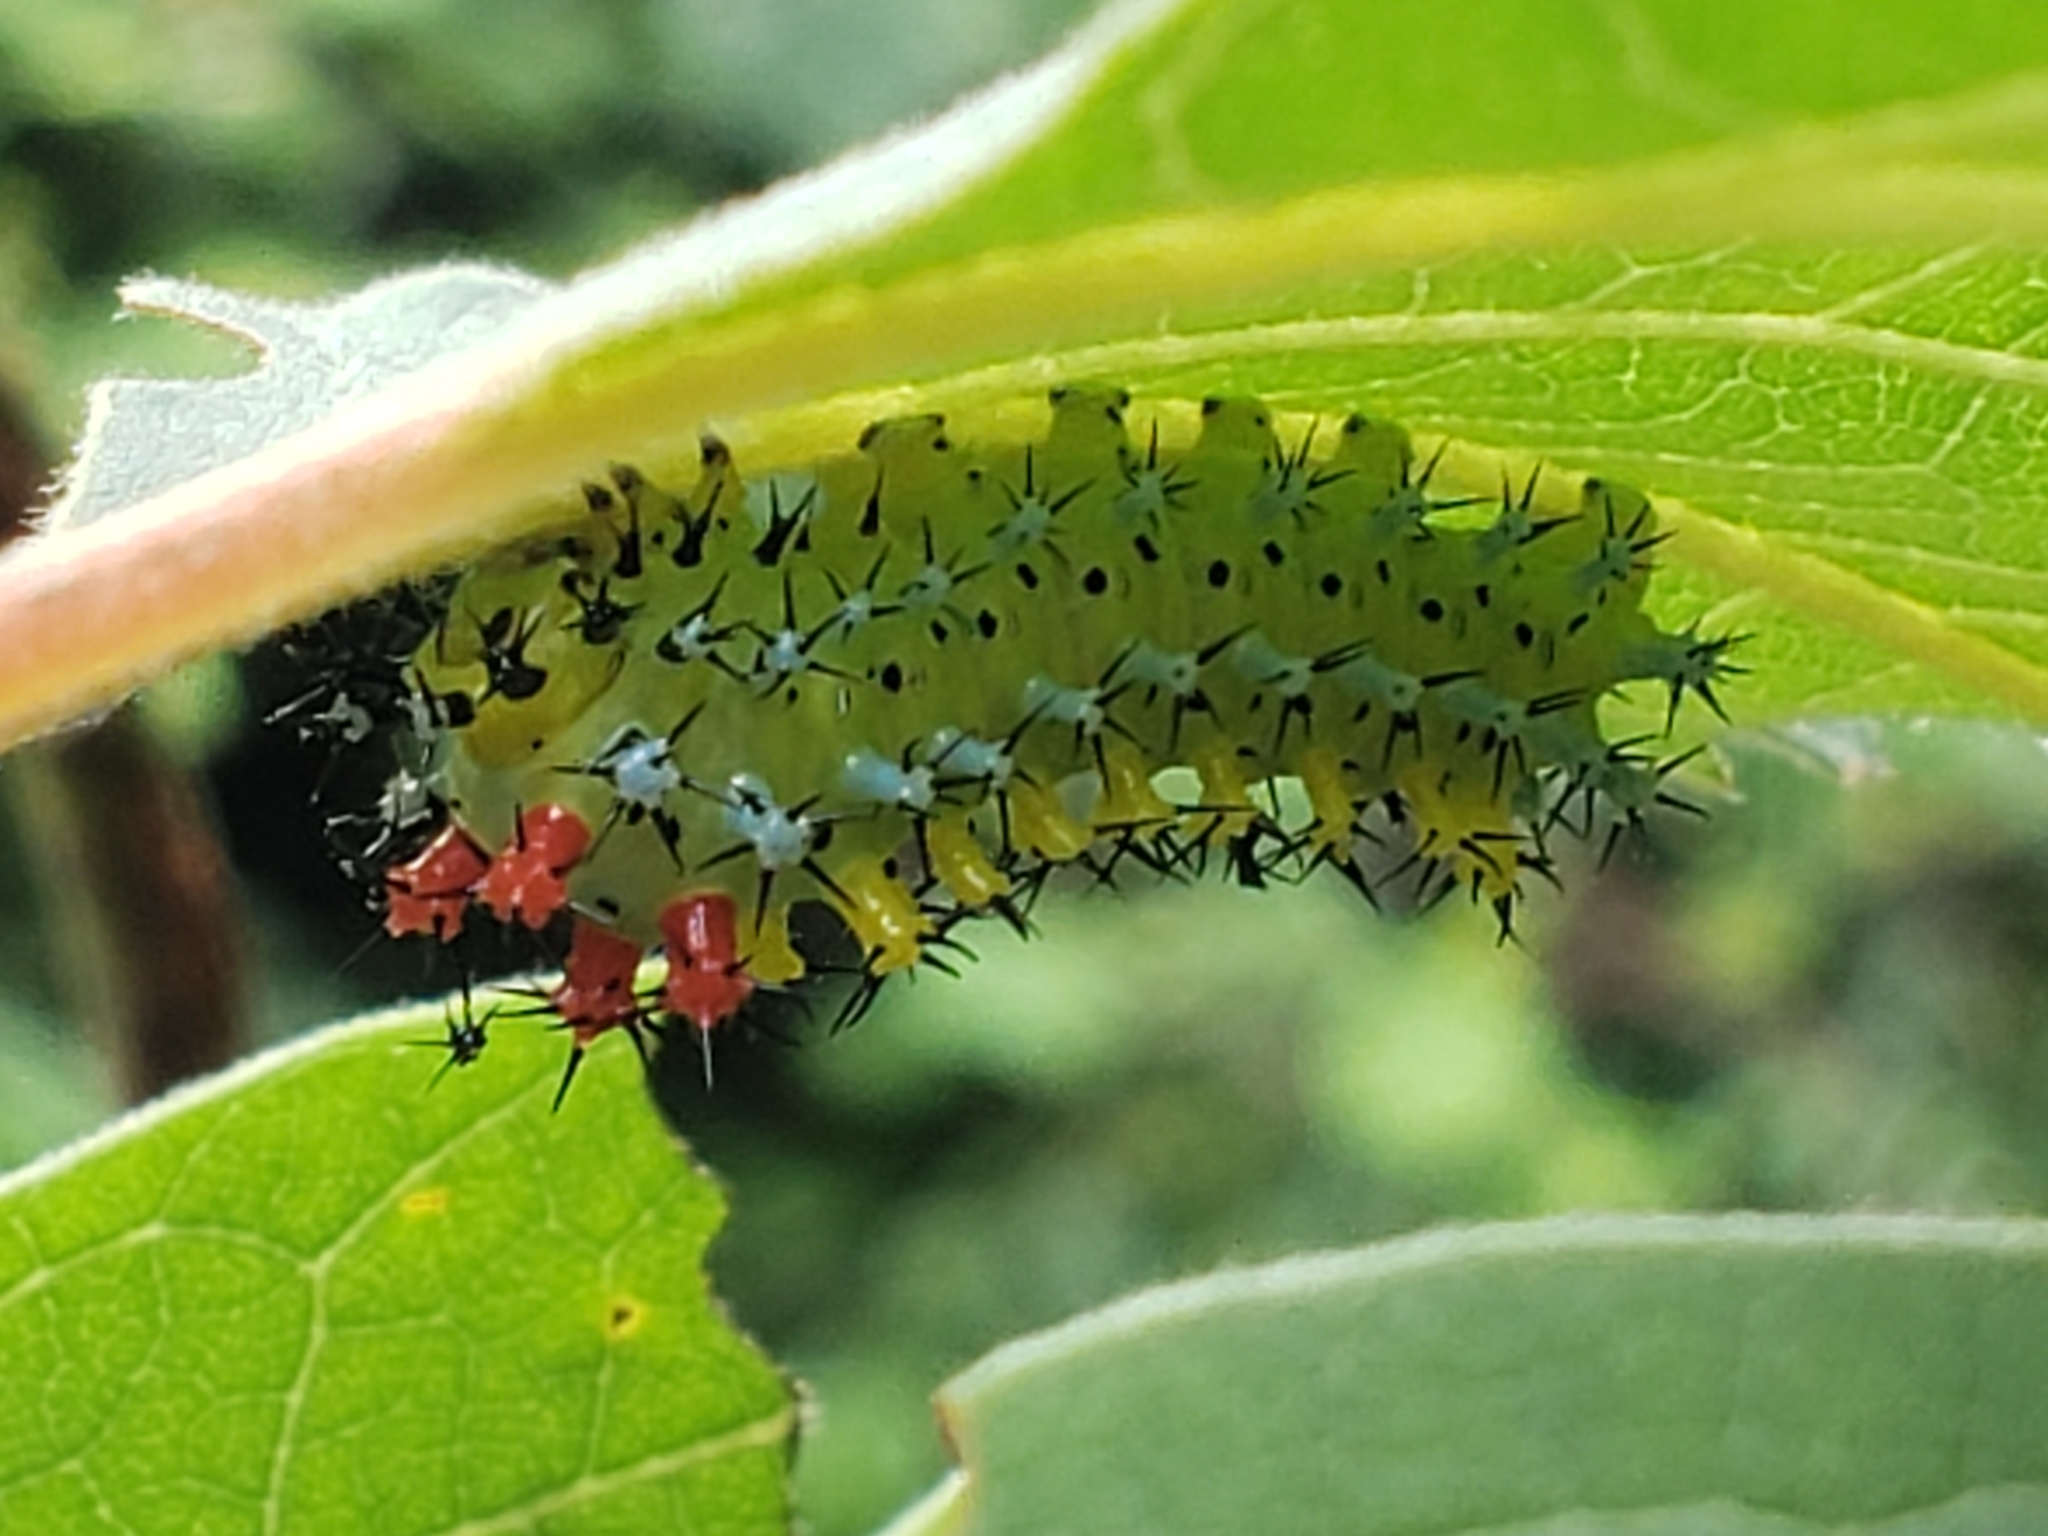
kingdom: Animalia
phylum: Arthropoda
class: Insecta
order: Lepidoptera
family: Saturniidae
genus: Hyalophora
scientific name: Hyalophora cecropia
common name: Cecropia silkmoth
